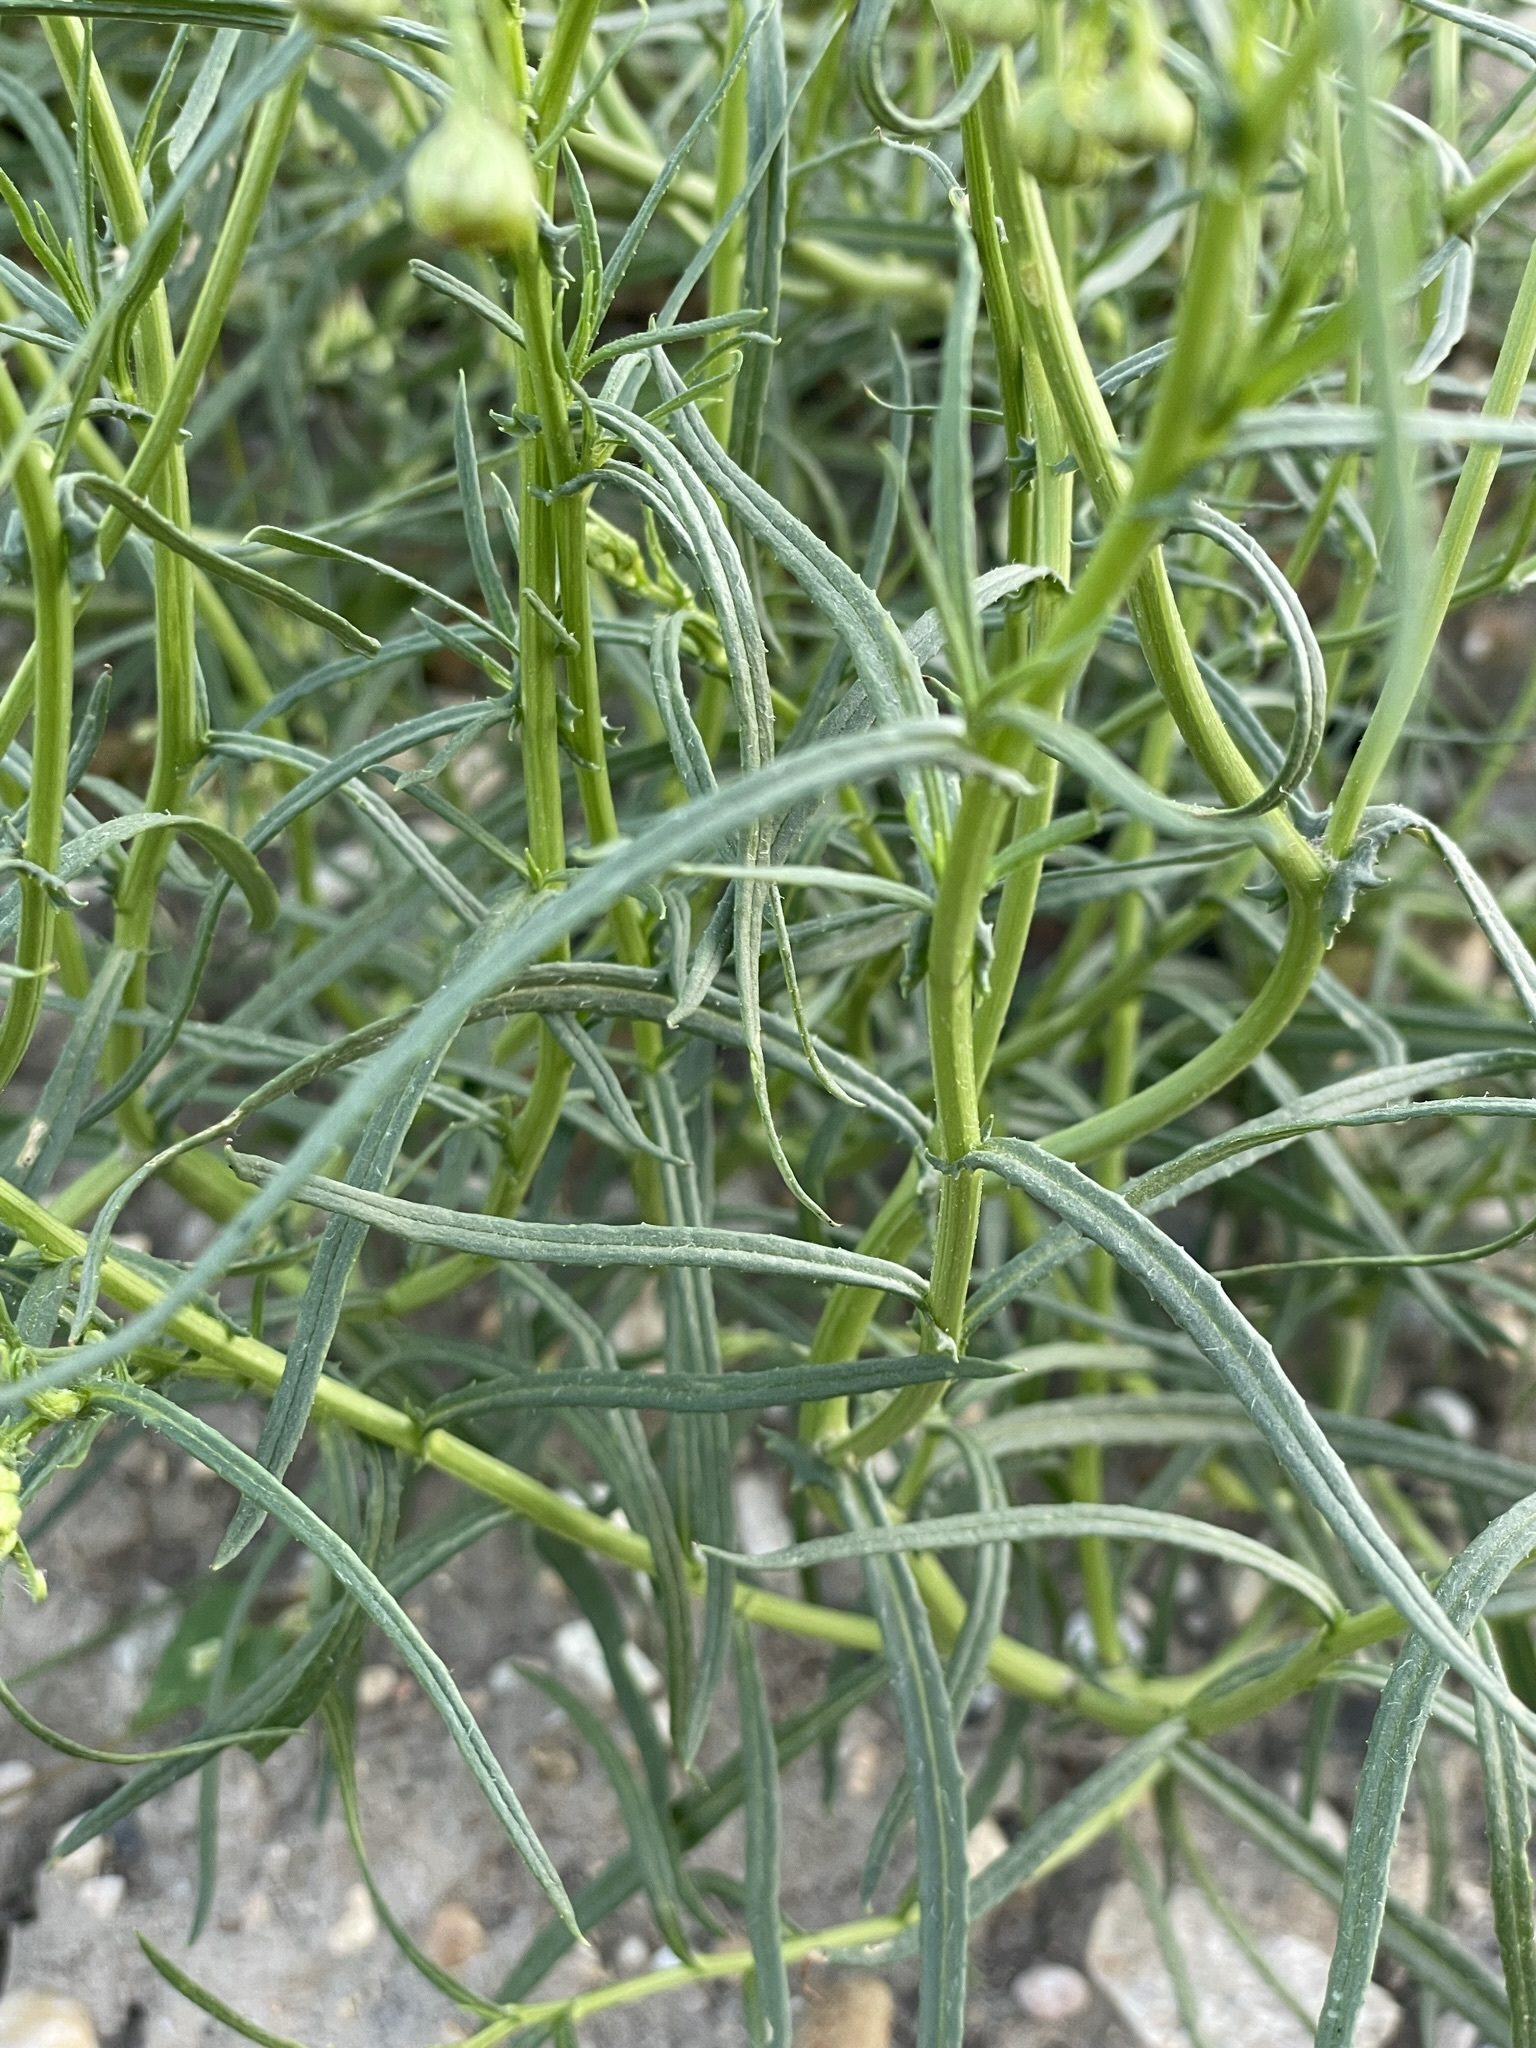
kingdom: Plantae
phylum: Tracheophyta
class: Magnoliopsida
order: Asterales
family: Asteraceae
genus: Senecio
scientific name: Senecio inaequidens
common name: Narrow-leaved ragwort
